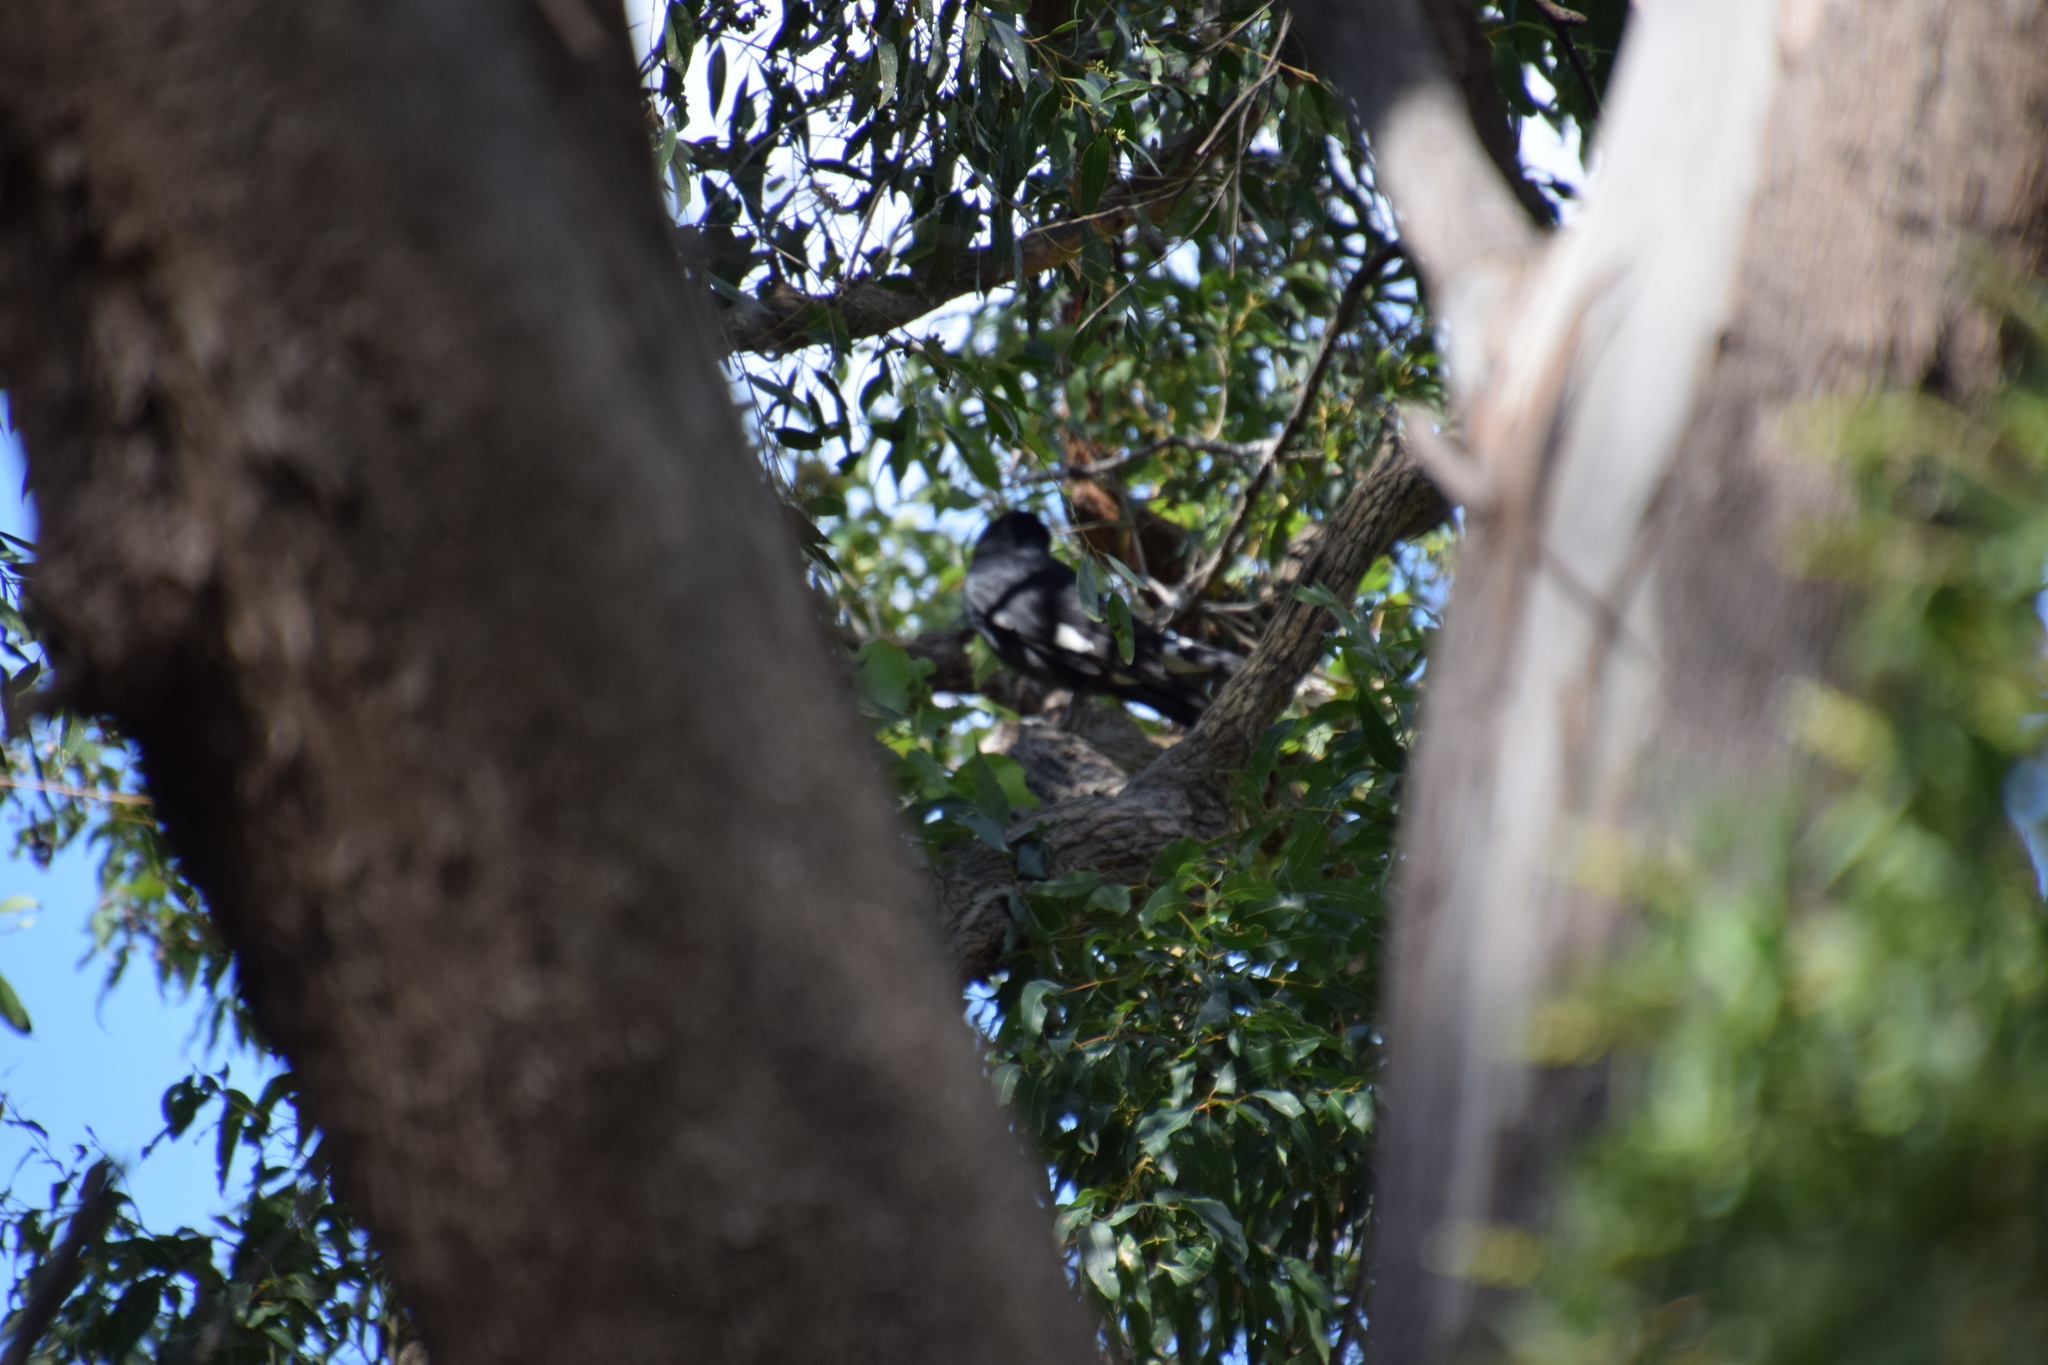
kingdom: Animalia
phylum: Chordata
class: Aves
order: Passeriformes
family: Cracticidae
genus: Strepera
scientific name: Strepera graculina
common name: Pied currawong
